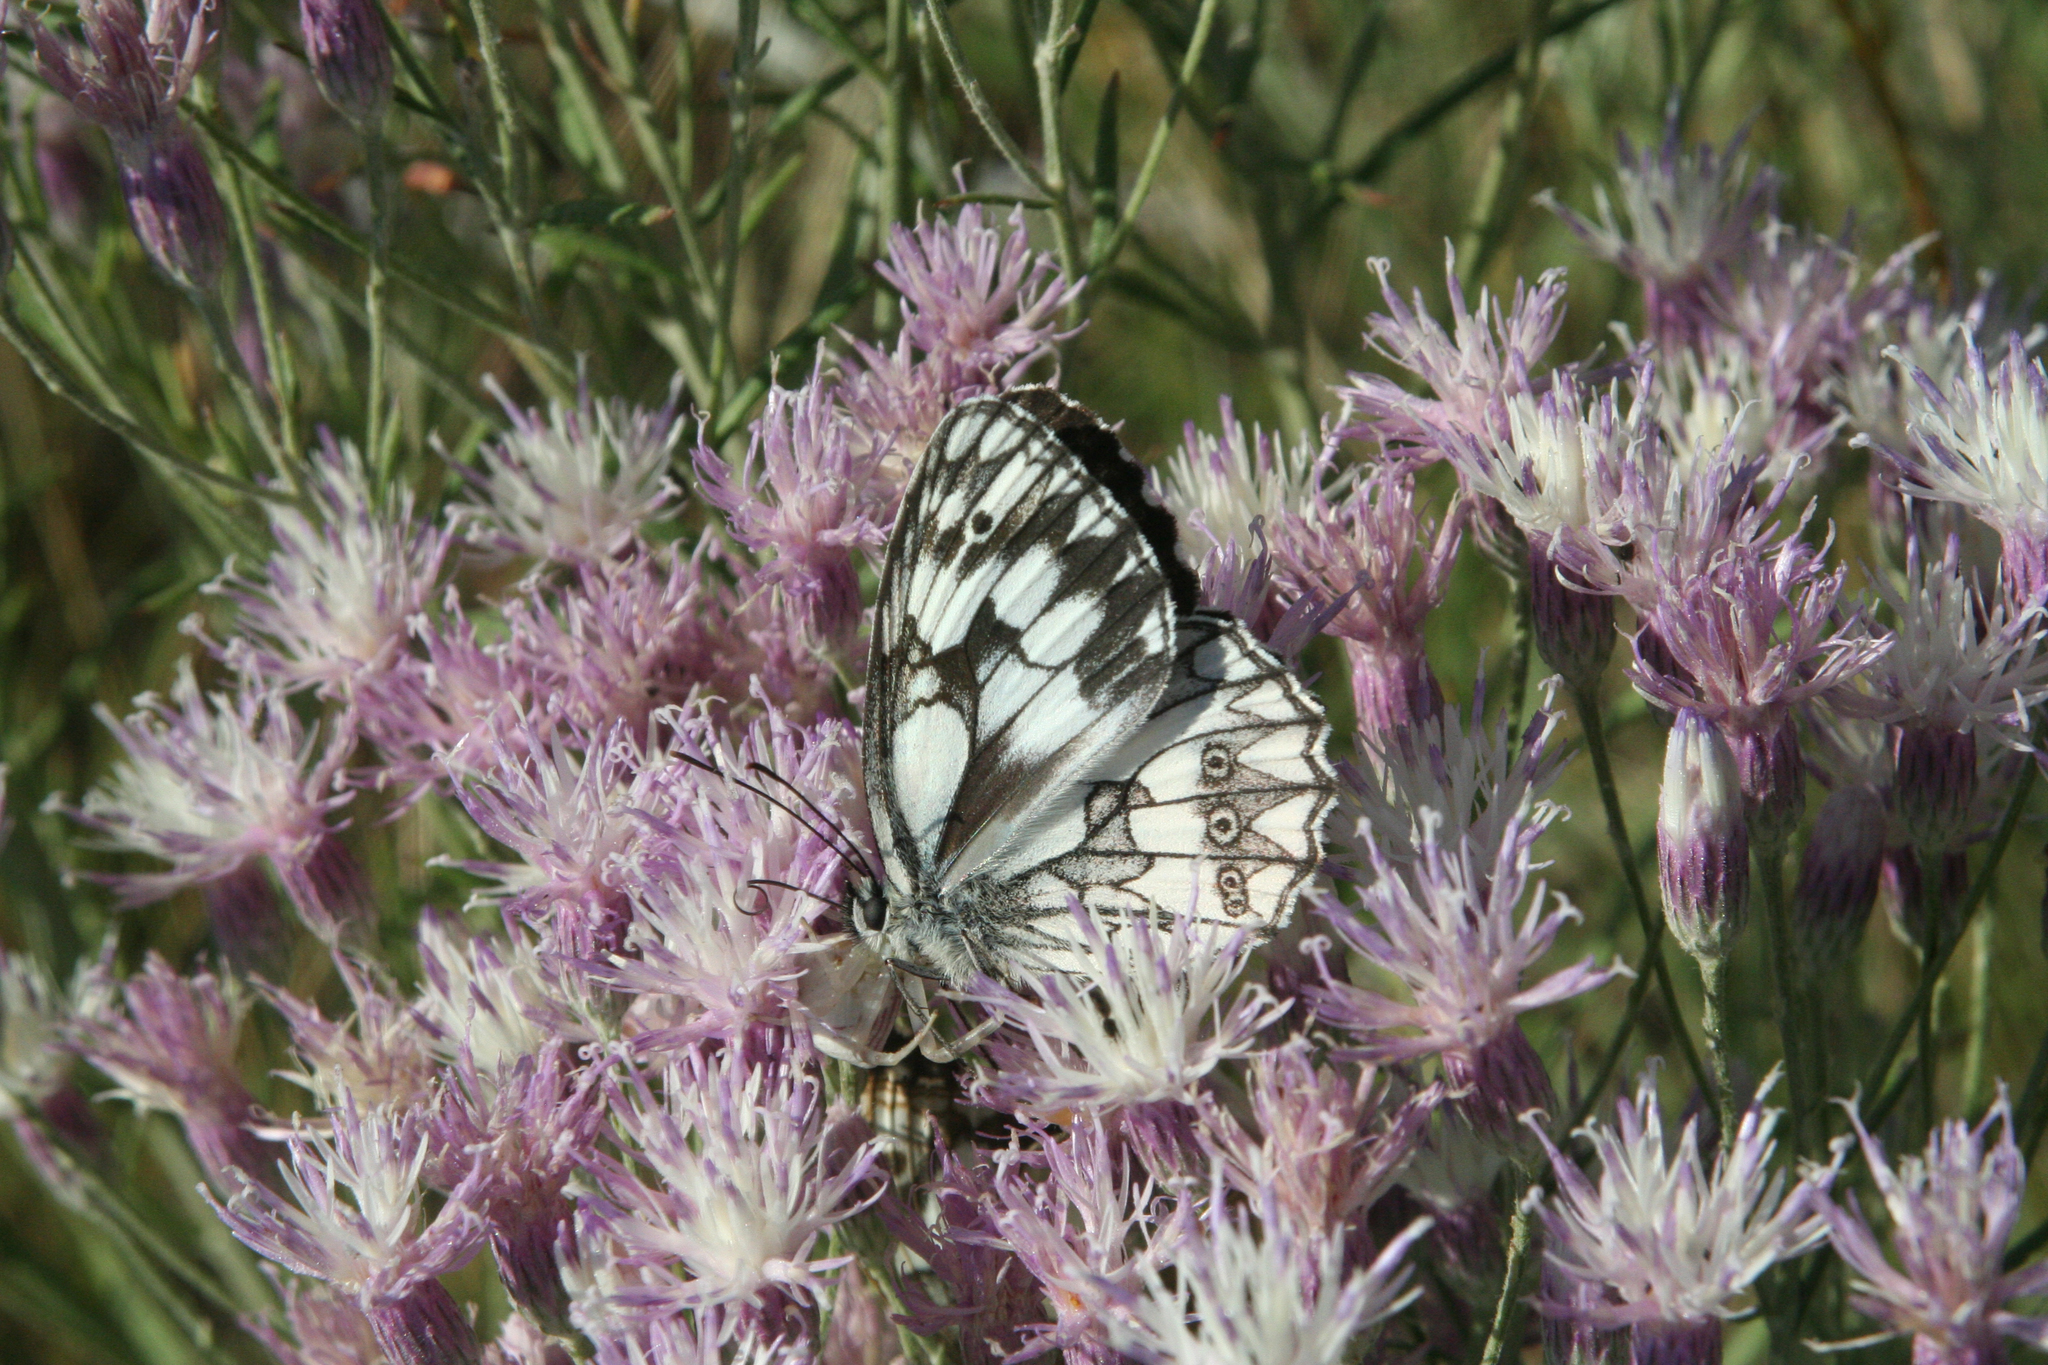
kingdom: Animalia
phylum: Arthropoda
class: Insecta
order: Lepidoptera
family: Nymphalidae
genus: Melanargia
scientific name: Melanargia galathea
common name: Marbled white
